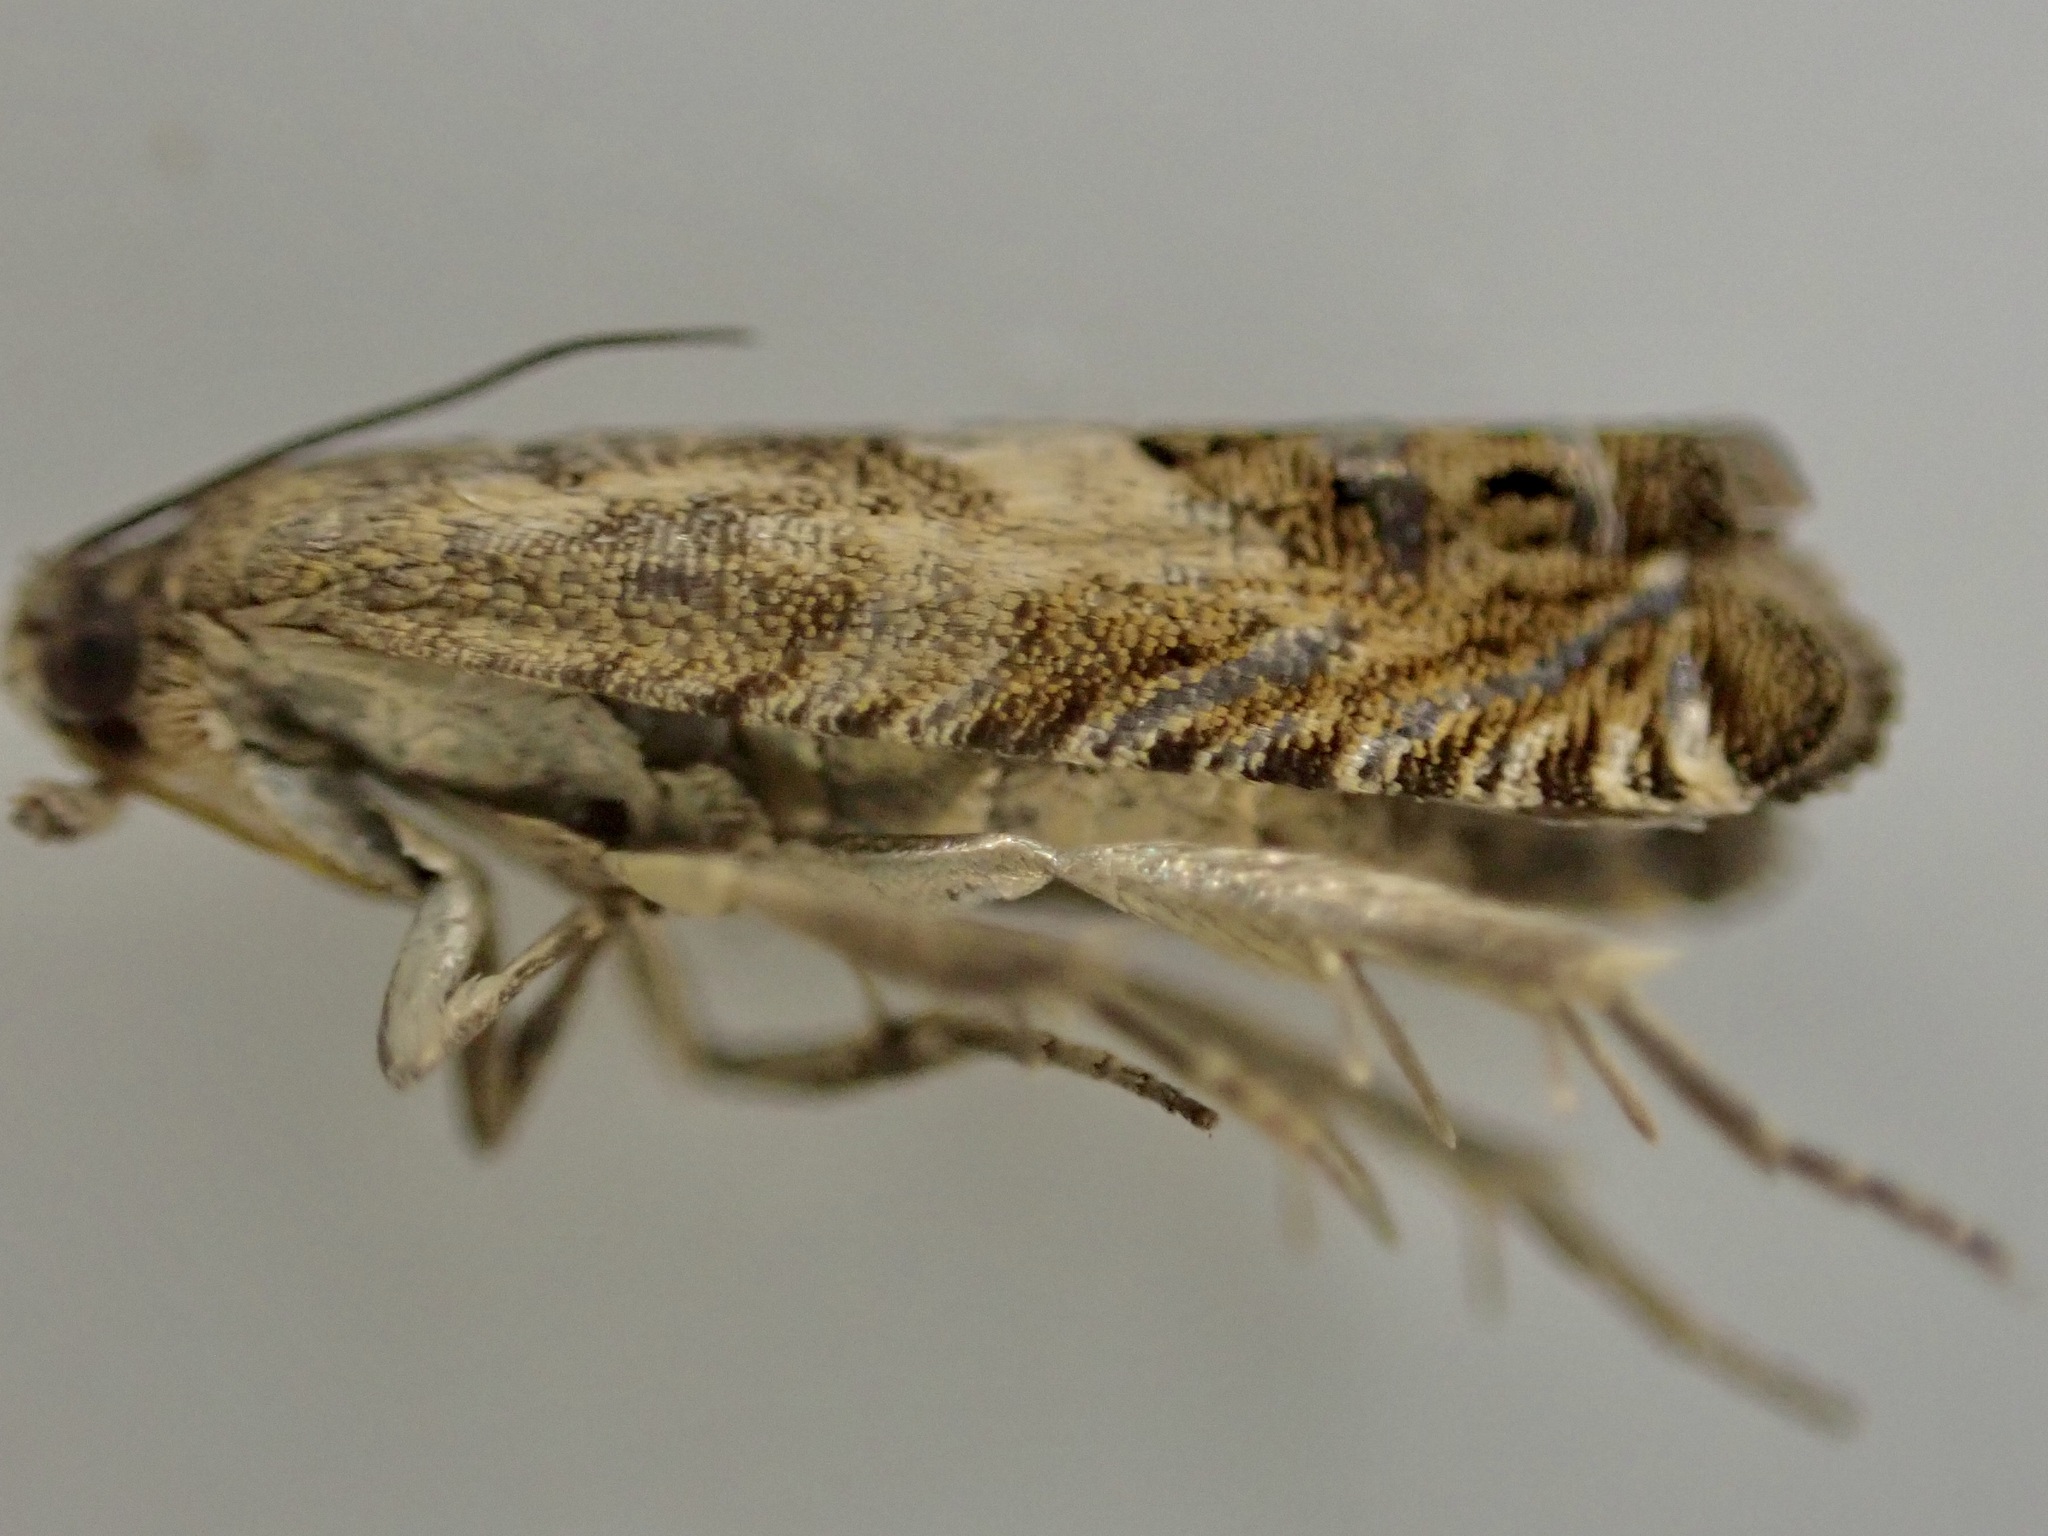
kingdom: Animalia
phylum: Arthropoda
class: Insecta
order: Lepidoptera
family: Tortricidae
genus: Cydia
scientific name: Cydia succedana
